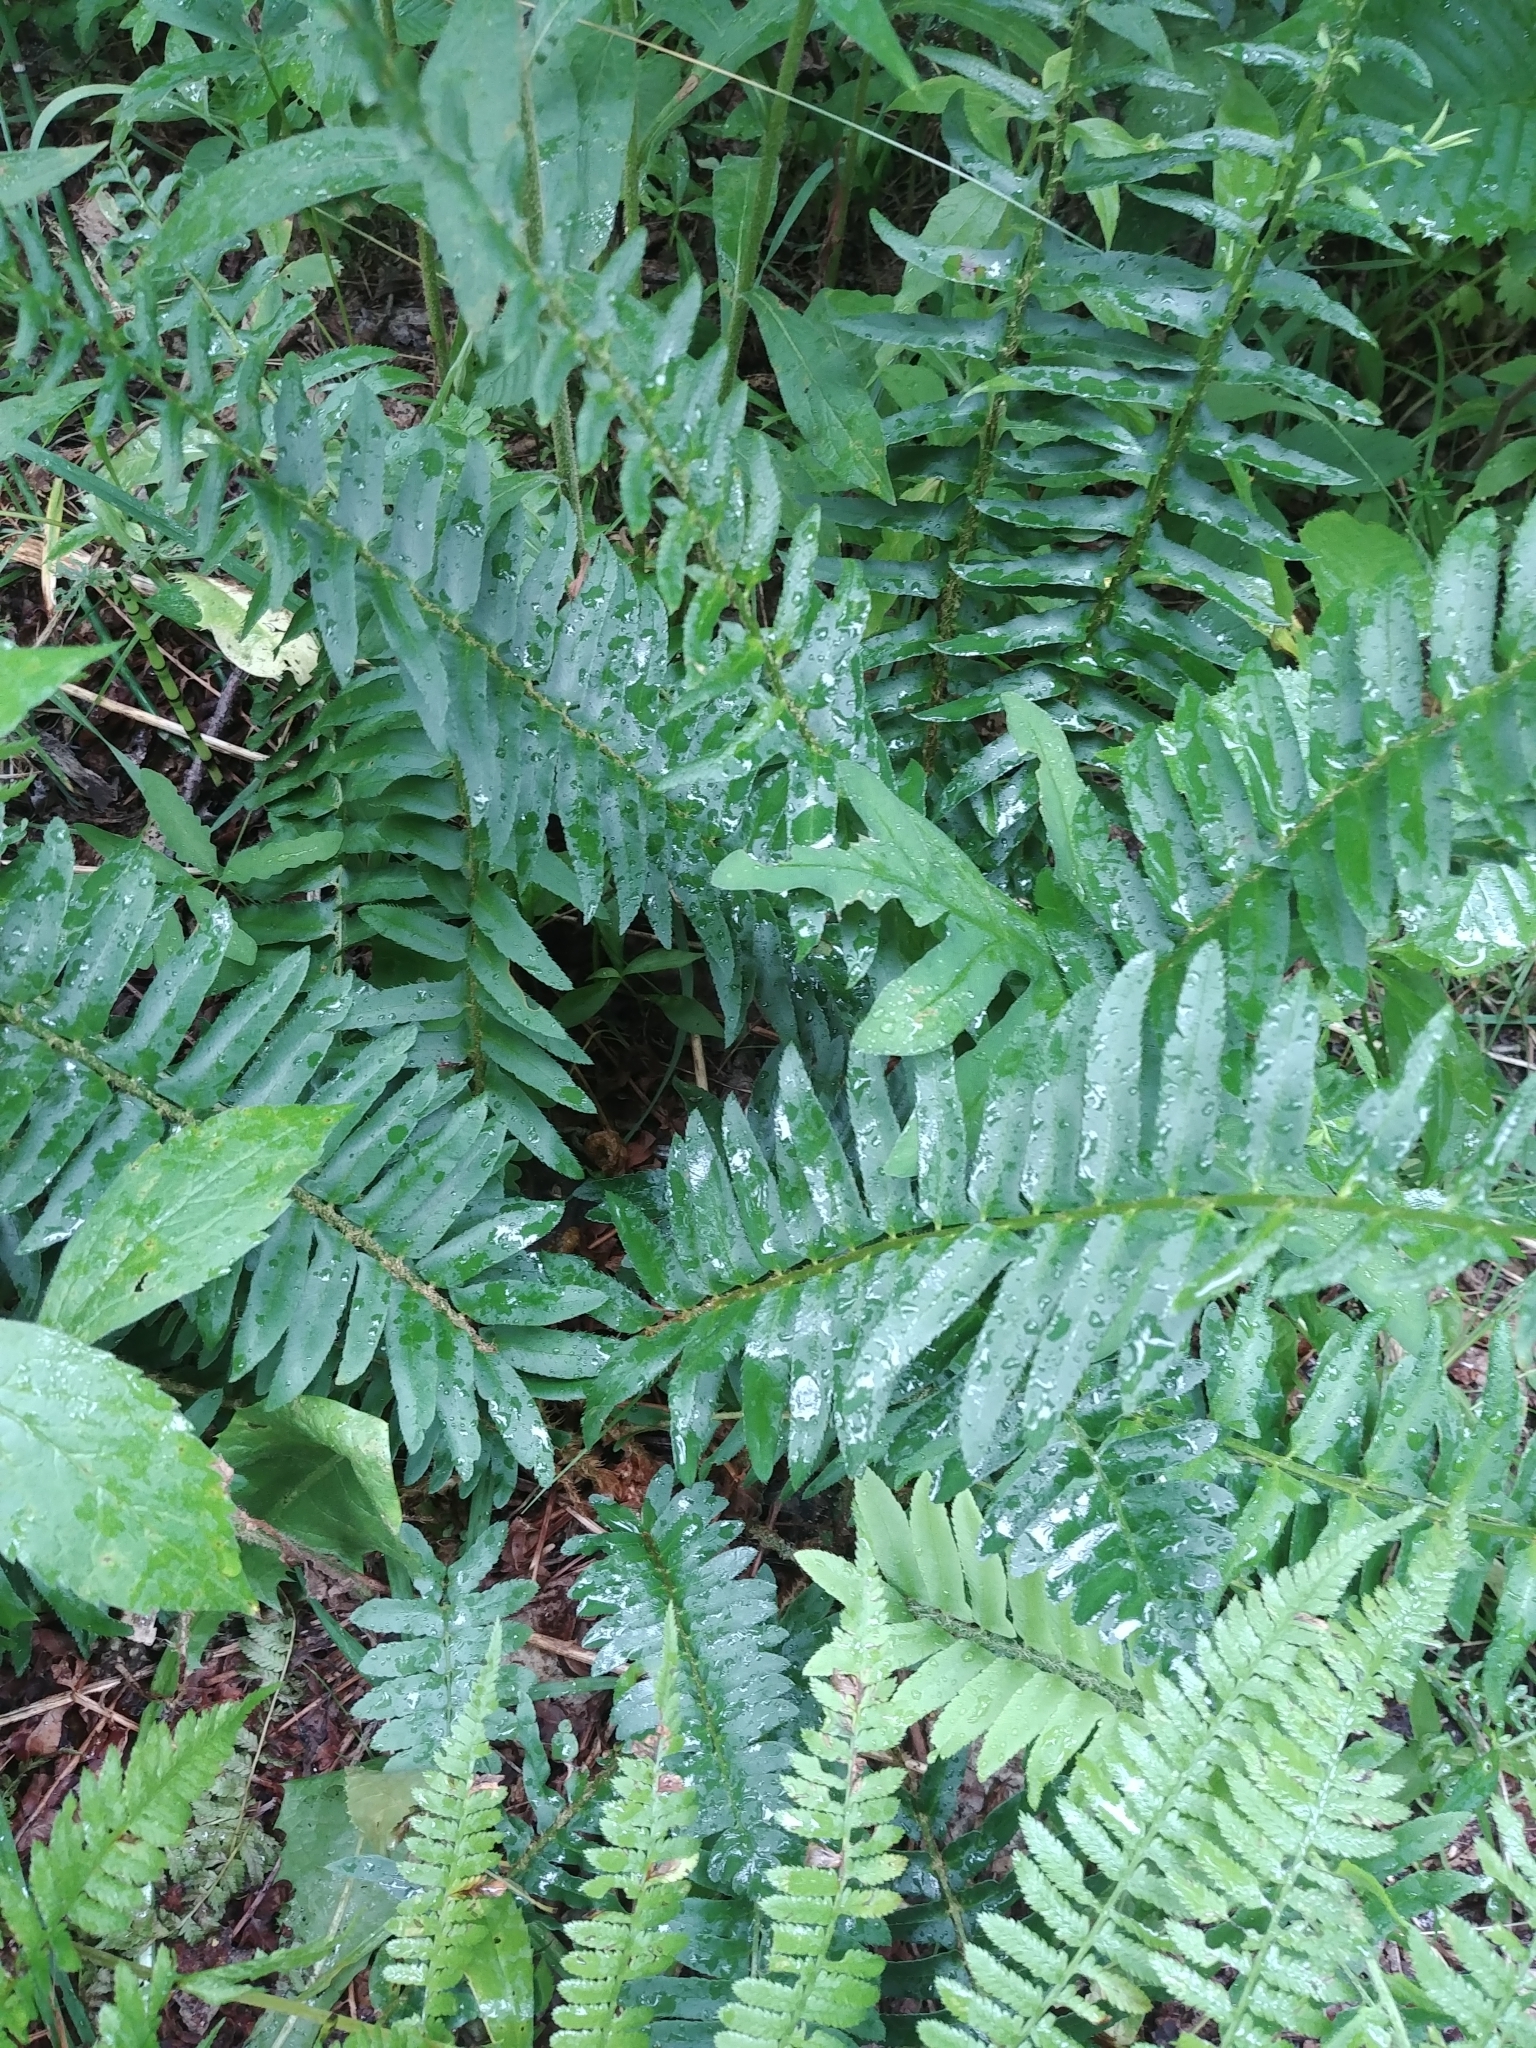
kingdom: Plantae
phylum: Tracheophyta
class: Polypodiopsida
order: Polypodiales
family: Dryopteridaceae
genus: Polystichum
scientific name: Polystichum acrostichoides
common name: Christmas fern
